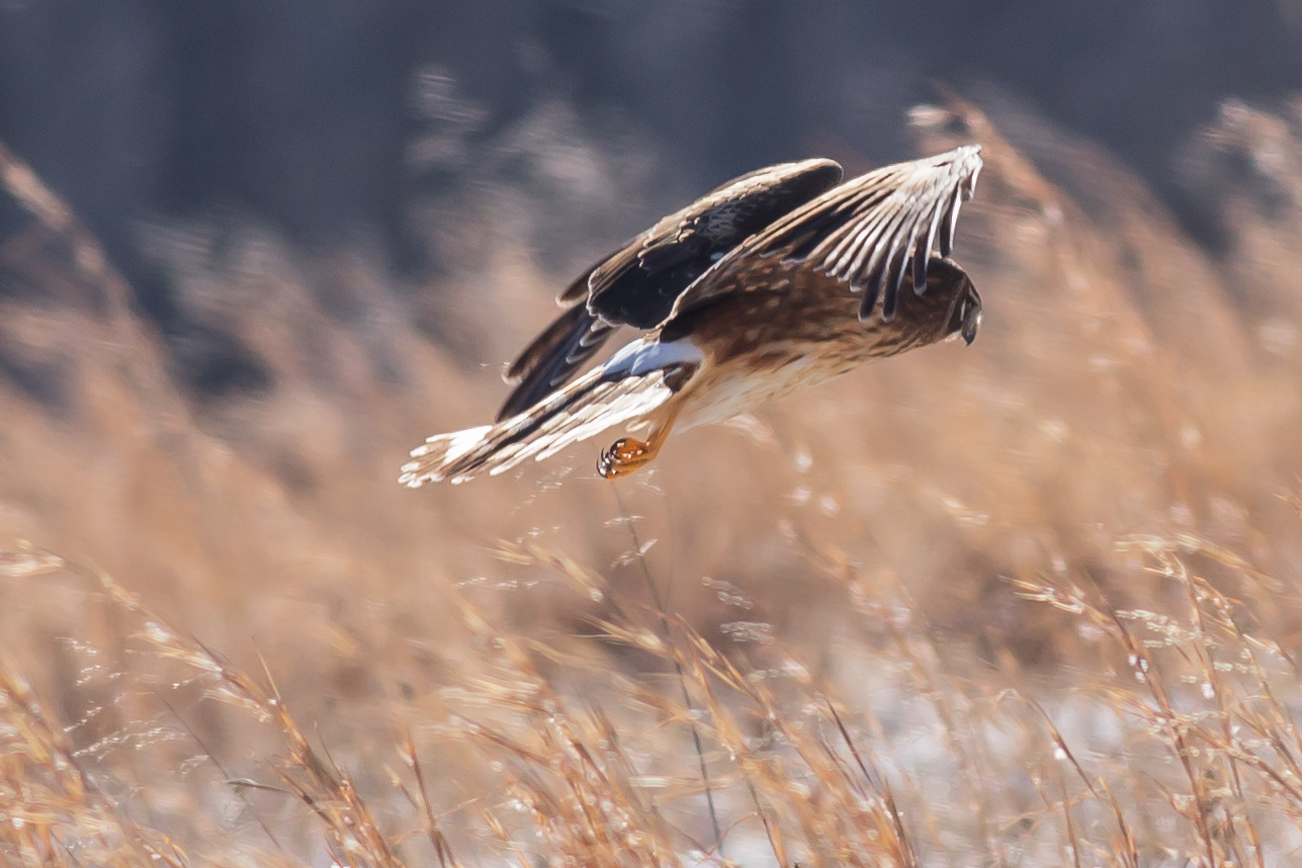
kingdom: Animalia
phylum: Chordata
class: Aves
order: Accipitriformes
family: Accipitridae
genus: Circus
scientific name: Circus cyaneus
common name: Hen harrier
